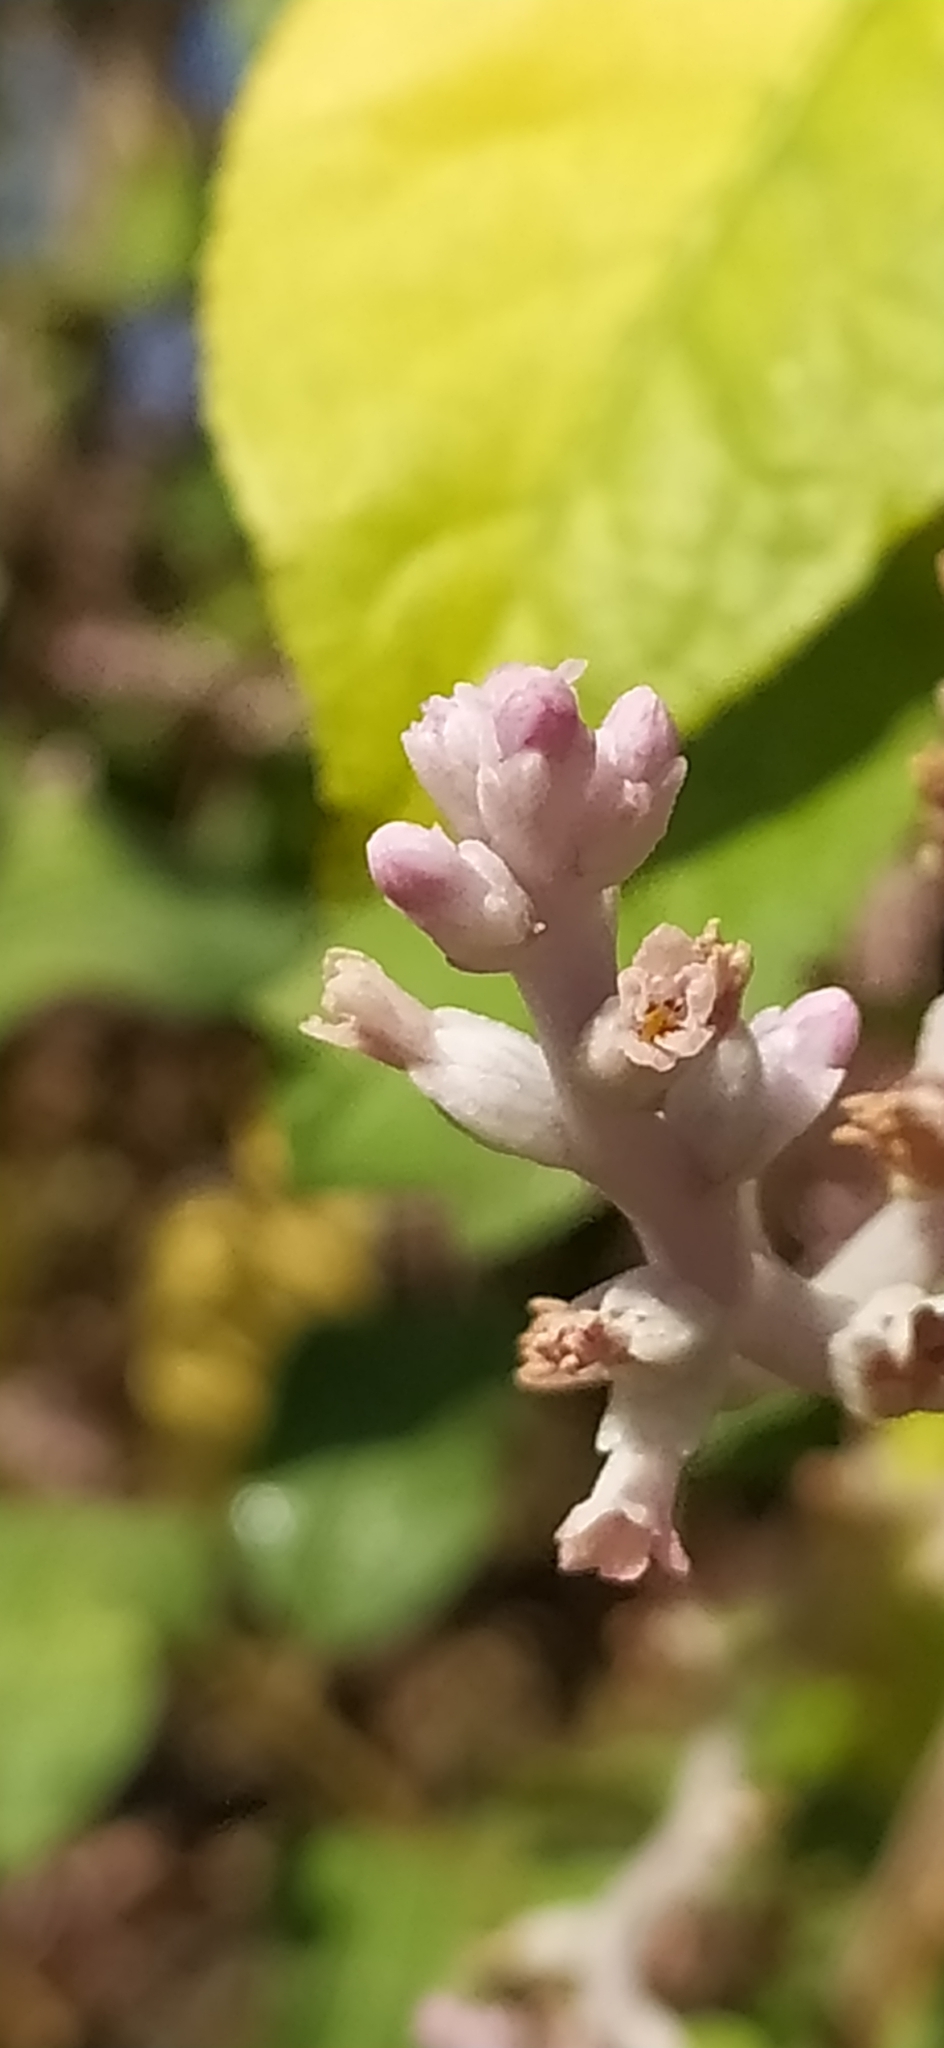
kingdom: Plantae
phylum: Tracheophyta
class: Magnoliopsida
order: Solanales
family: Convolvulaceae
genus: Cuscuta
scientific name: Cuscuta lehmanniana
